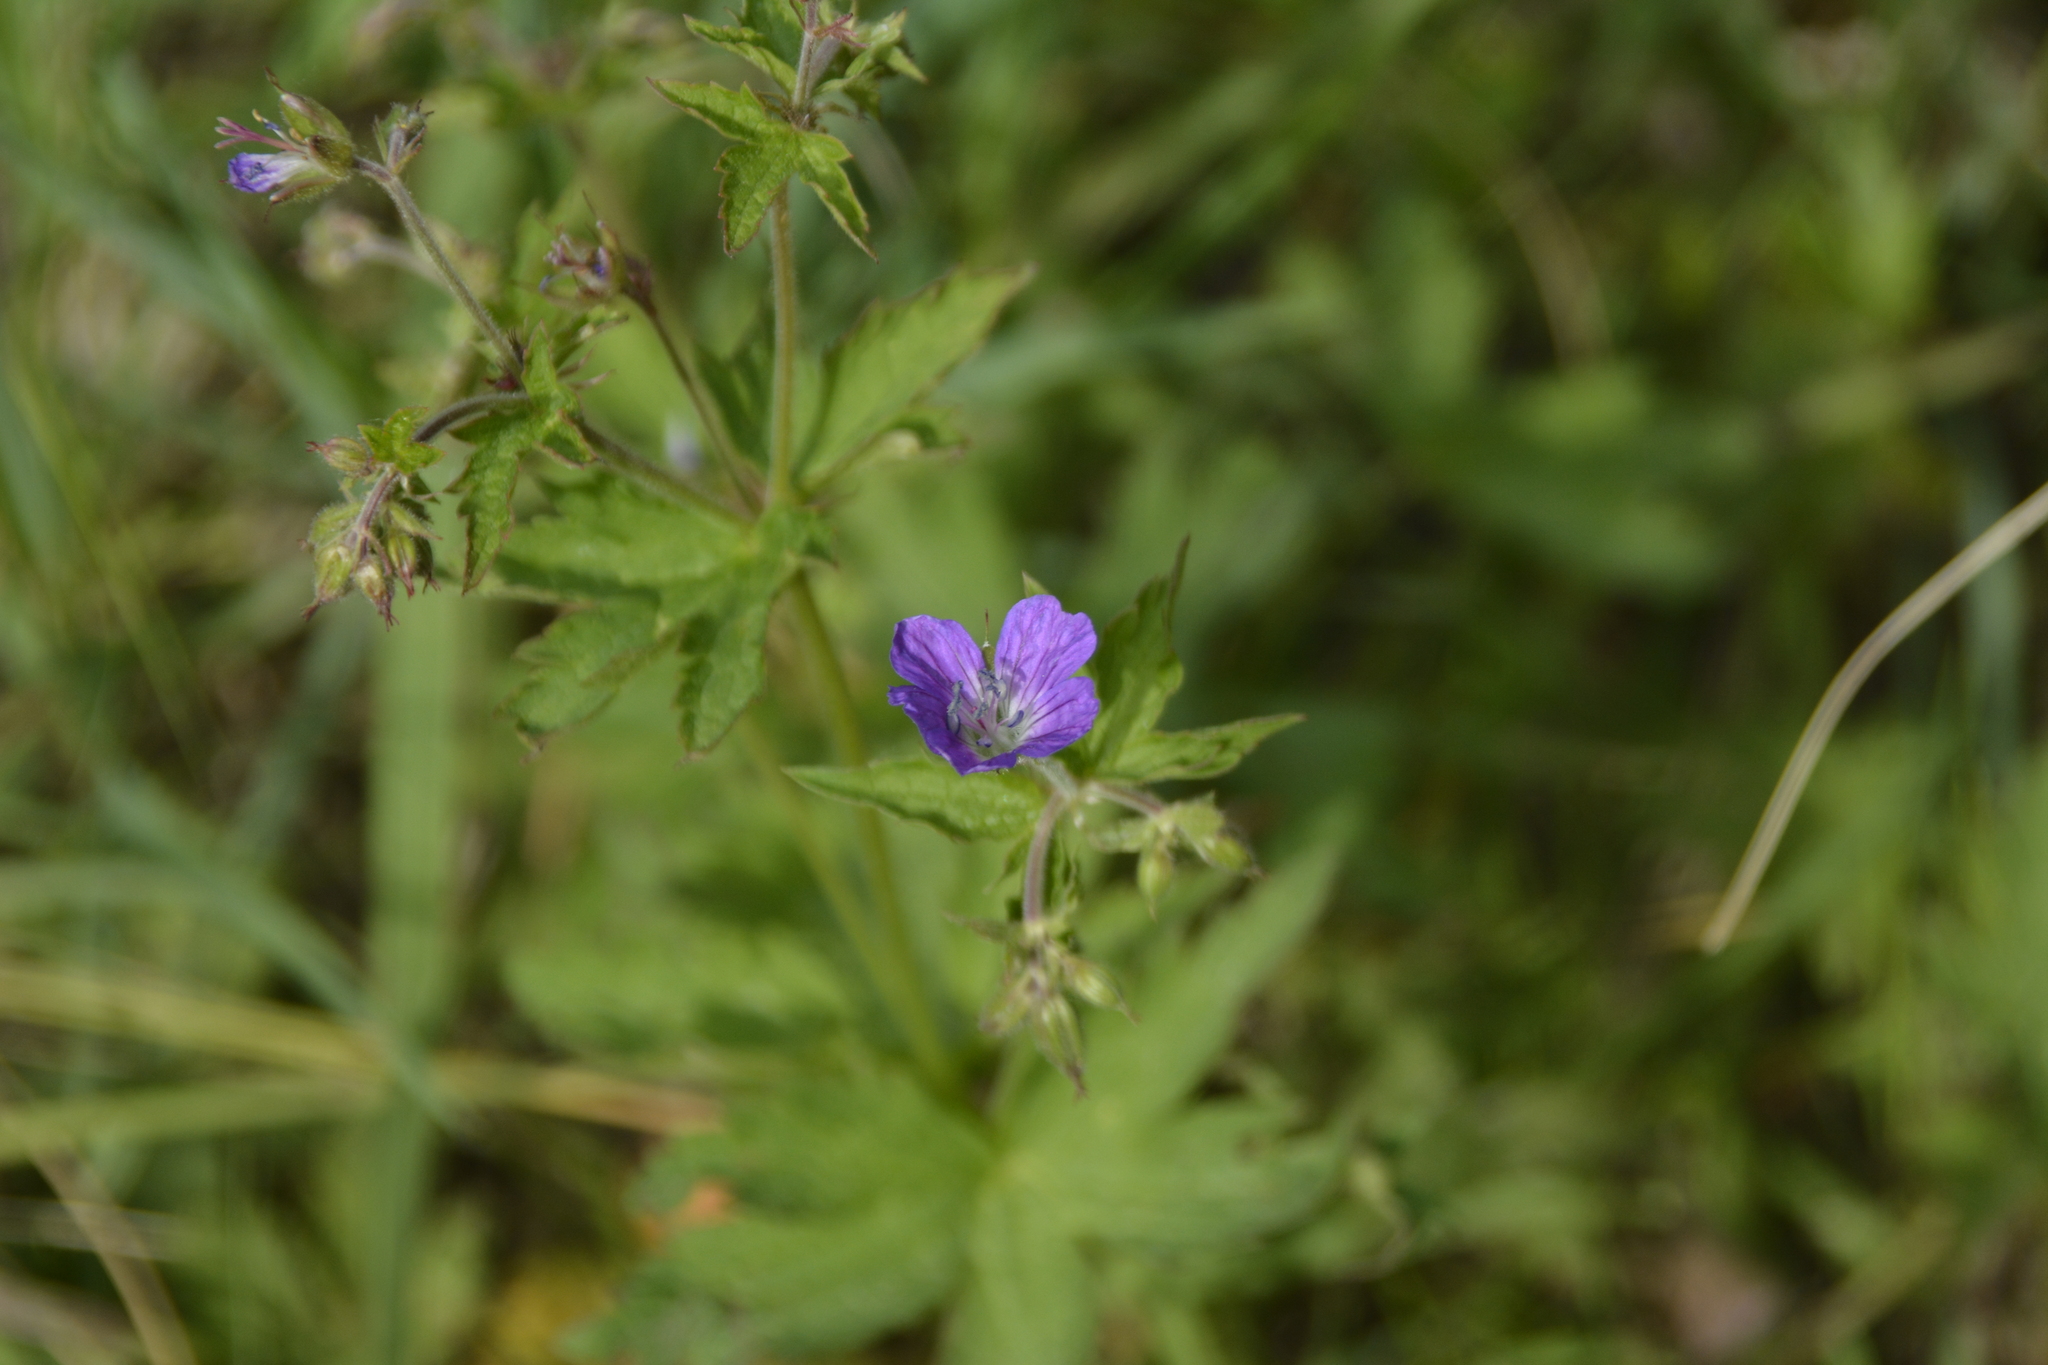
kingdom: Plantae
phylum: Tracheophyta
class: Magnoliopsida
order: Geraniales
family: Geraniaceae
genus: Geranium
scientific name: Geranium sylvaticum
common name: Wood crane's-bill
